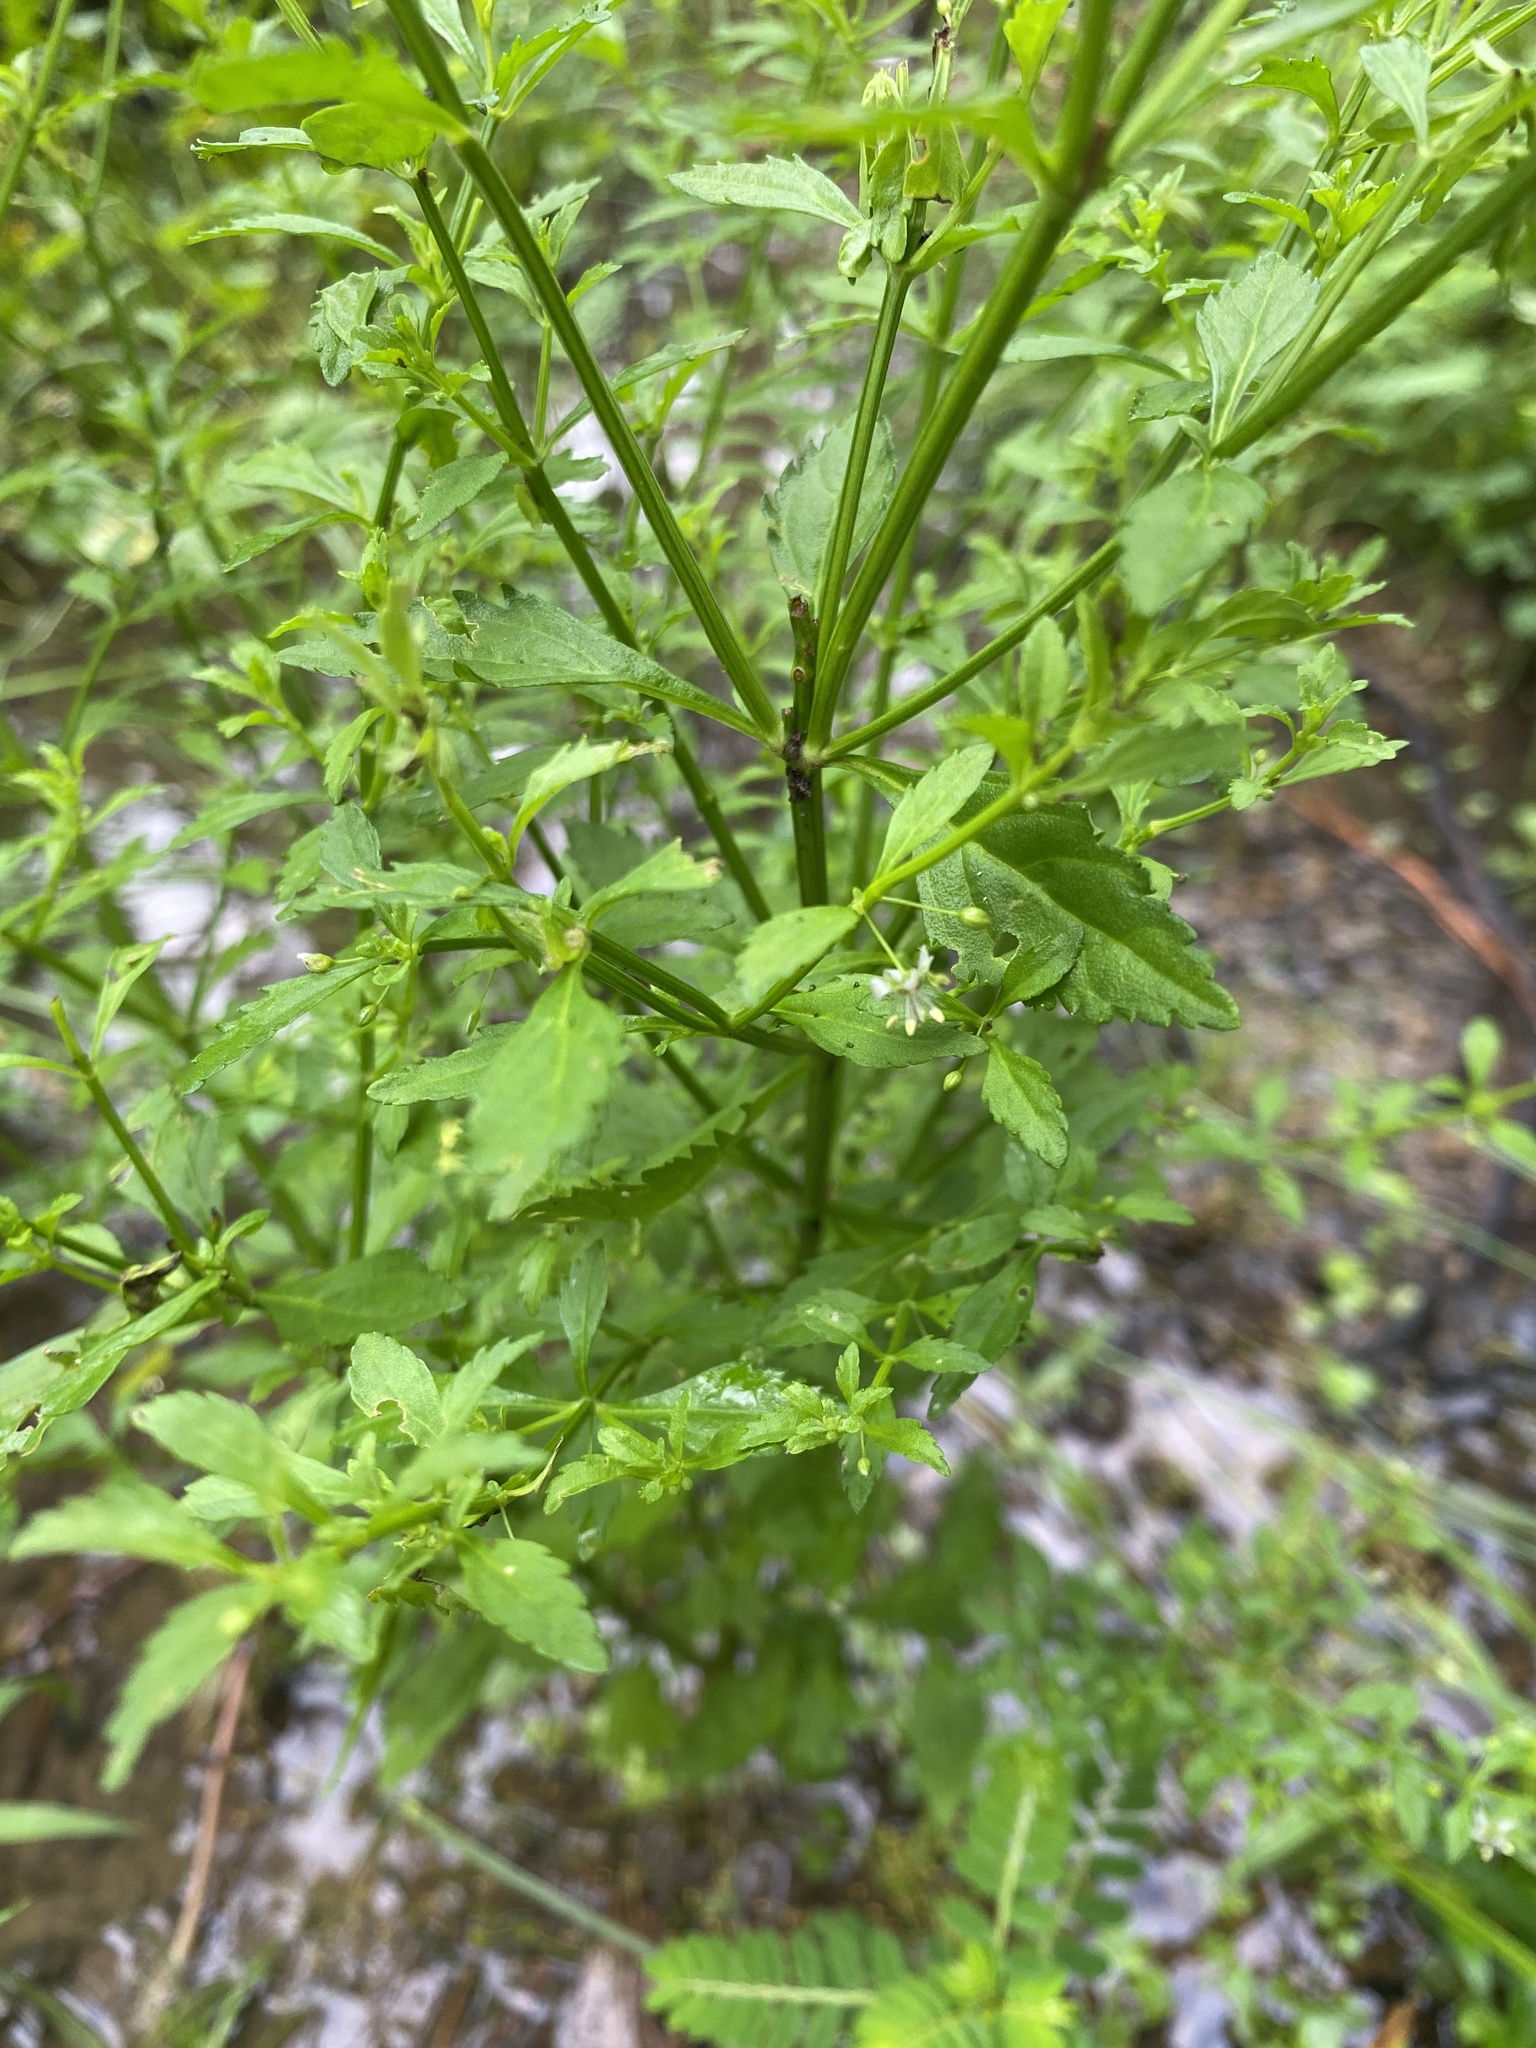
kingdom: Plantae
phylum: Tracheophyta
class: Magnoliopsida
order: Lamiales
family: Plantaginaceae
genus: Scoparia
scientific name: Scoparia dulcis
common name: Scoparia-weed
